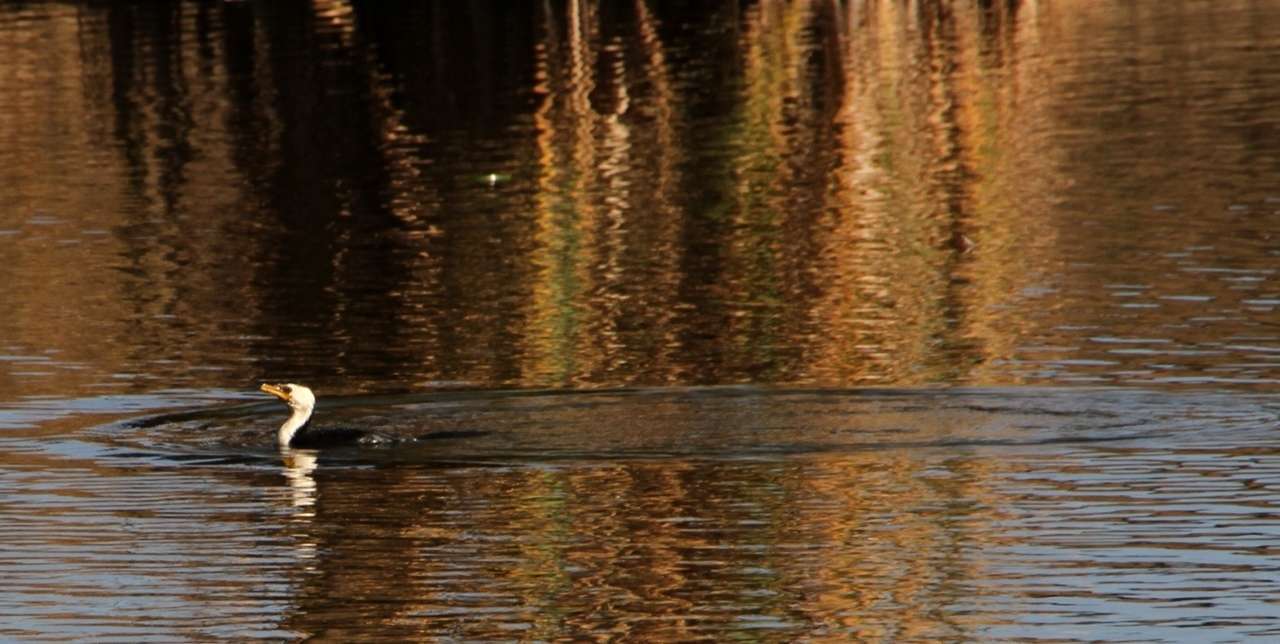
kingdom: Animalia
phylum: Chordata
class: Aves
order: Suliformes
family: Phalacrocoracidae
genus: Microcarbo
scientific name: Microcarbo melanoleucos
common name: Little pied cormorant
